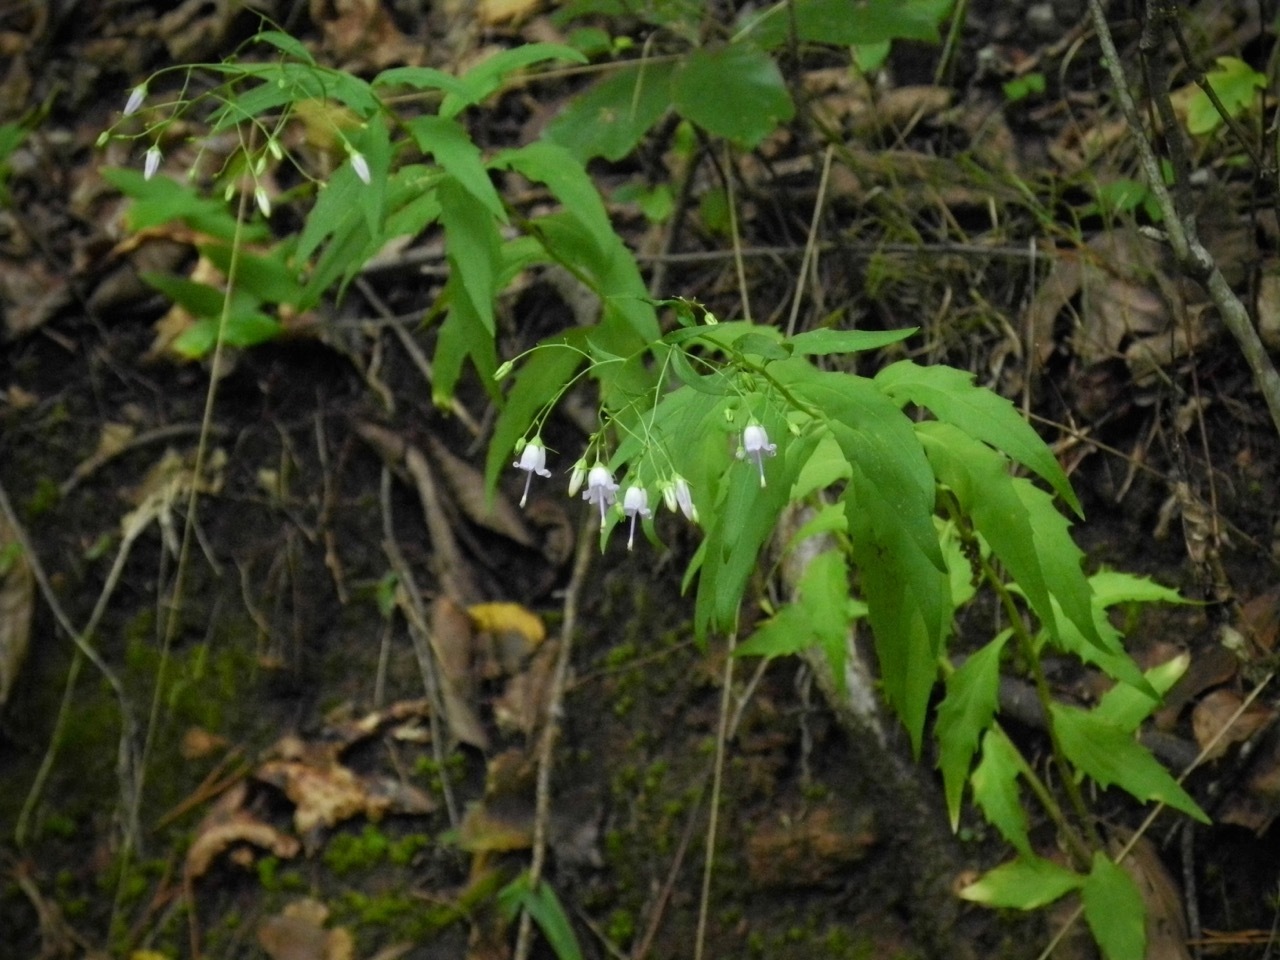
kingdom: Plantae
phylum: Tracheophyta
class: Magnoliopsida
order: Asterales
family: Campanulaceae
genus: Campanula
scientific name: Campanula divaricata
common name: Appalachian bellflower
